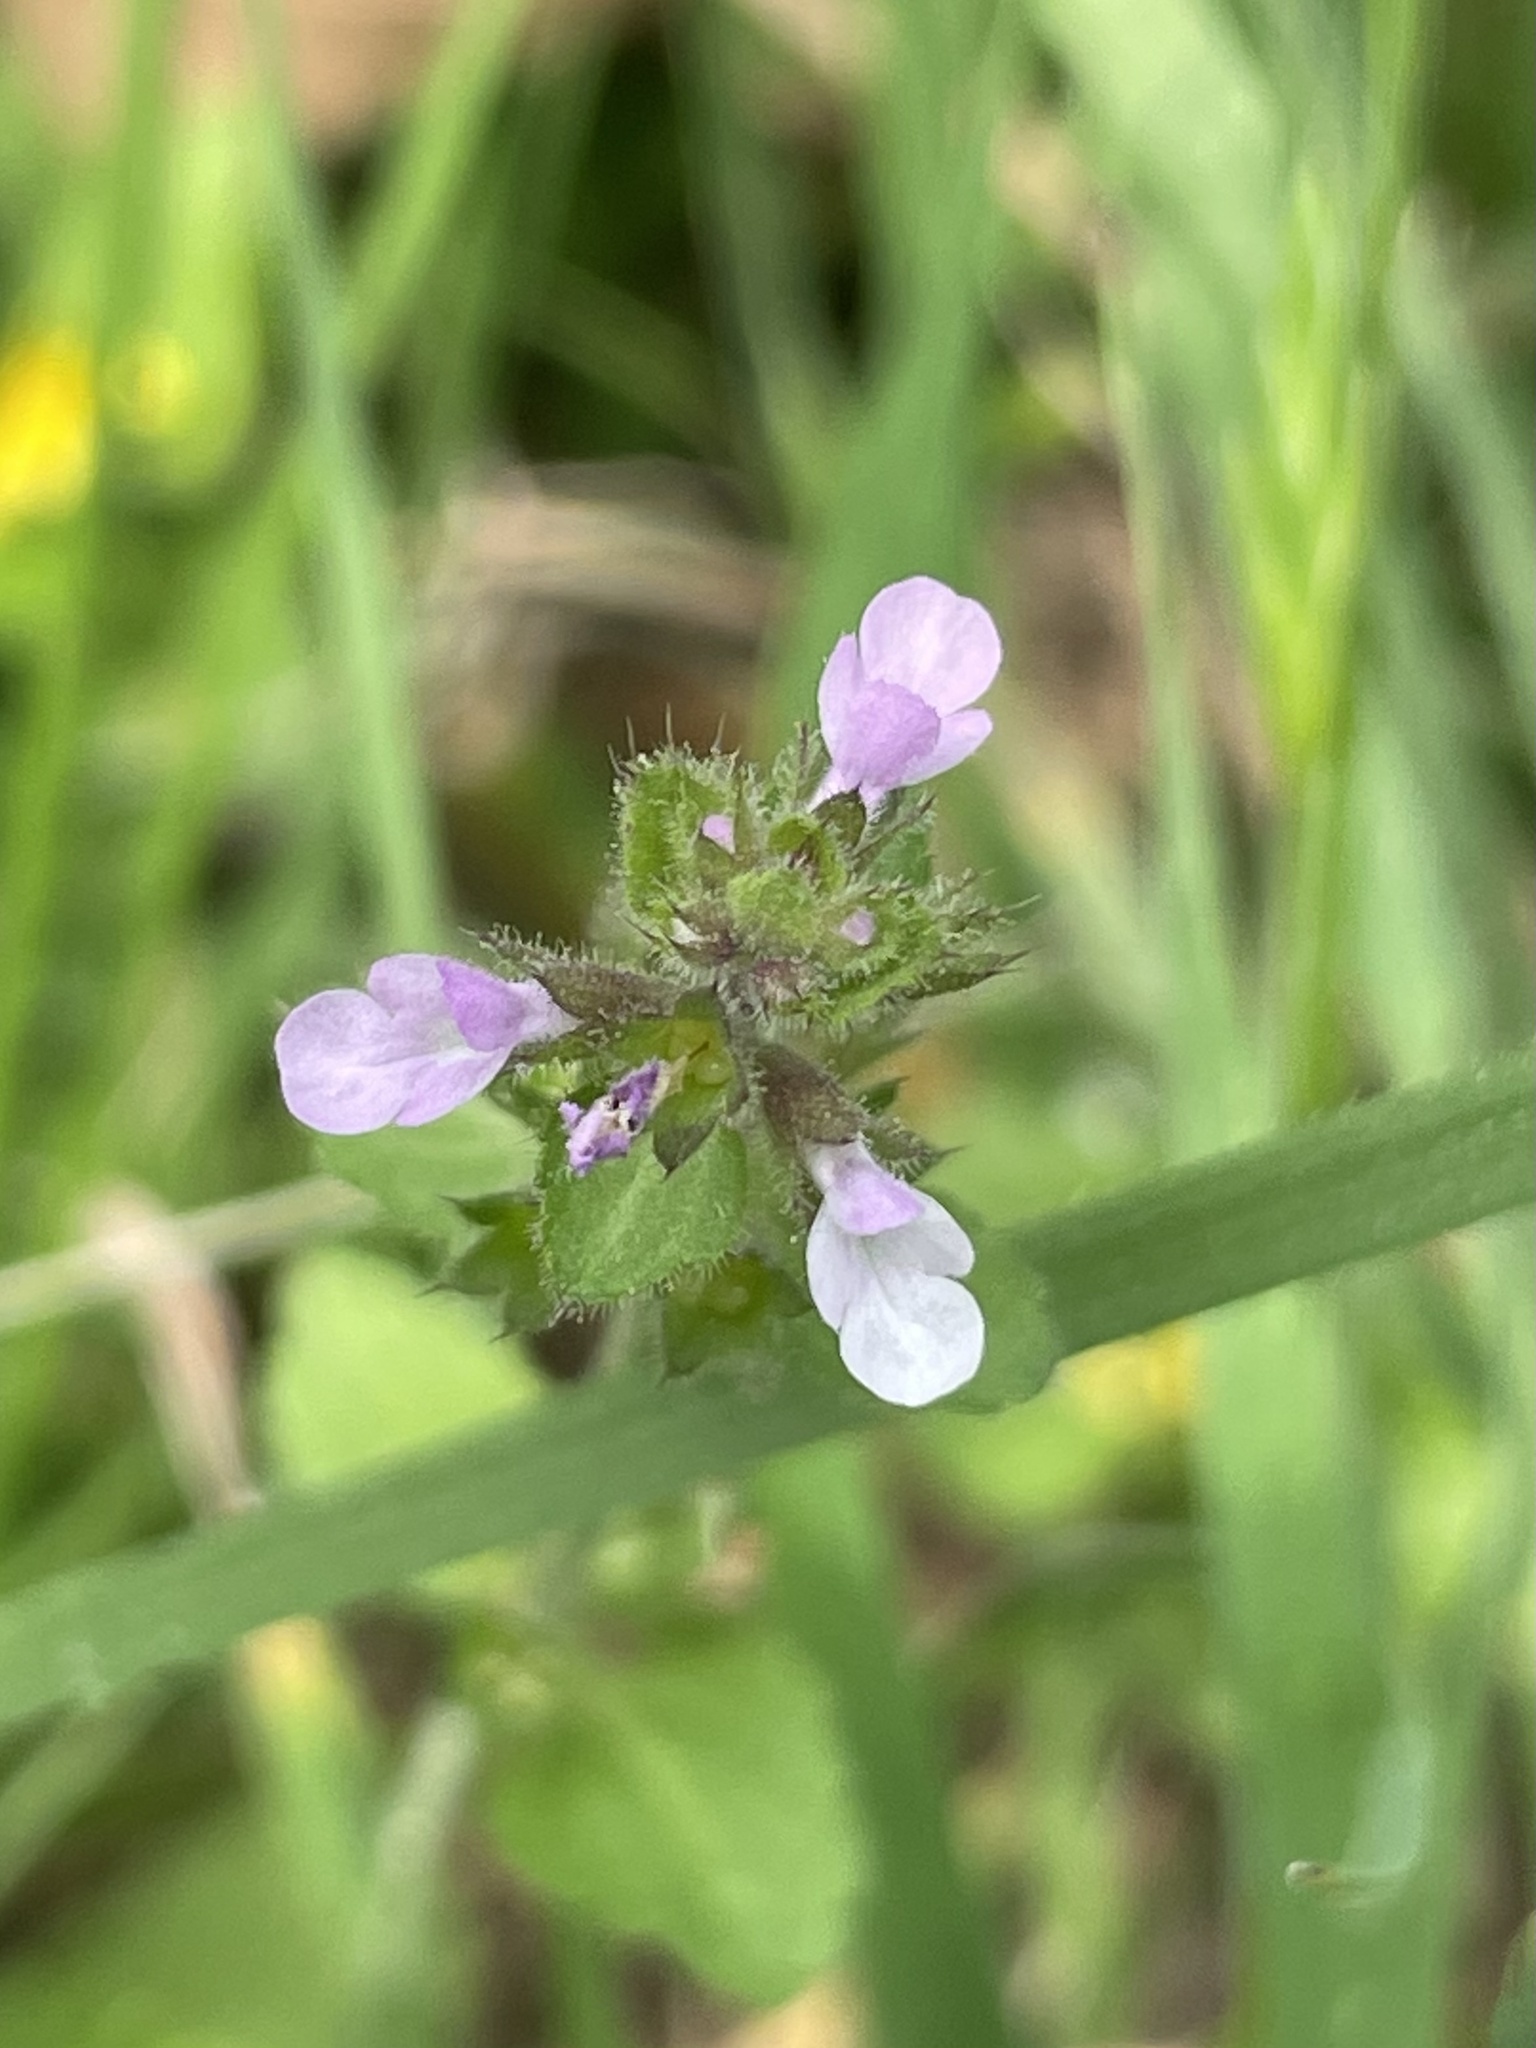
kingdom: Plantae
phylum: Tracheophyta
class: Magnoliopsida
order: Lamiales
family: Lamiaceae
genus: Stachys
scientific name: Stachys
